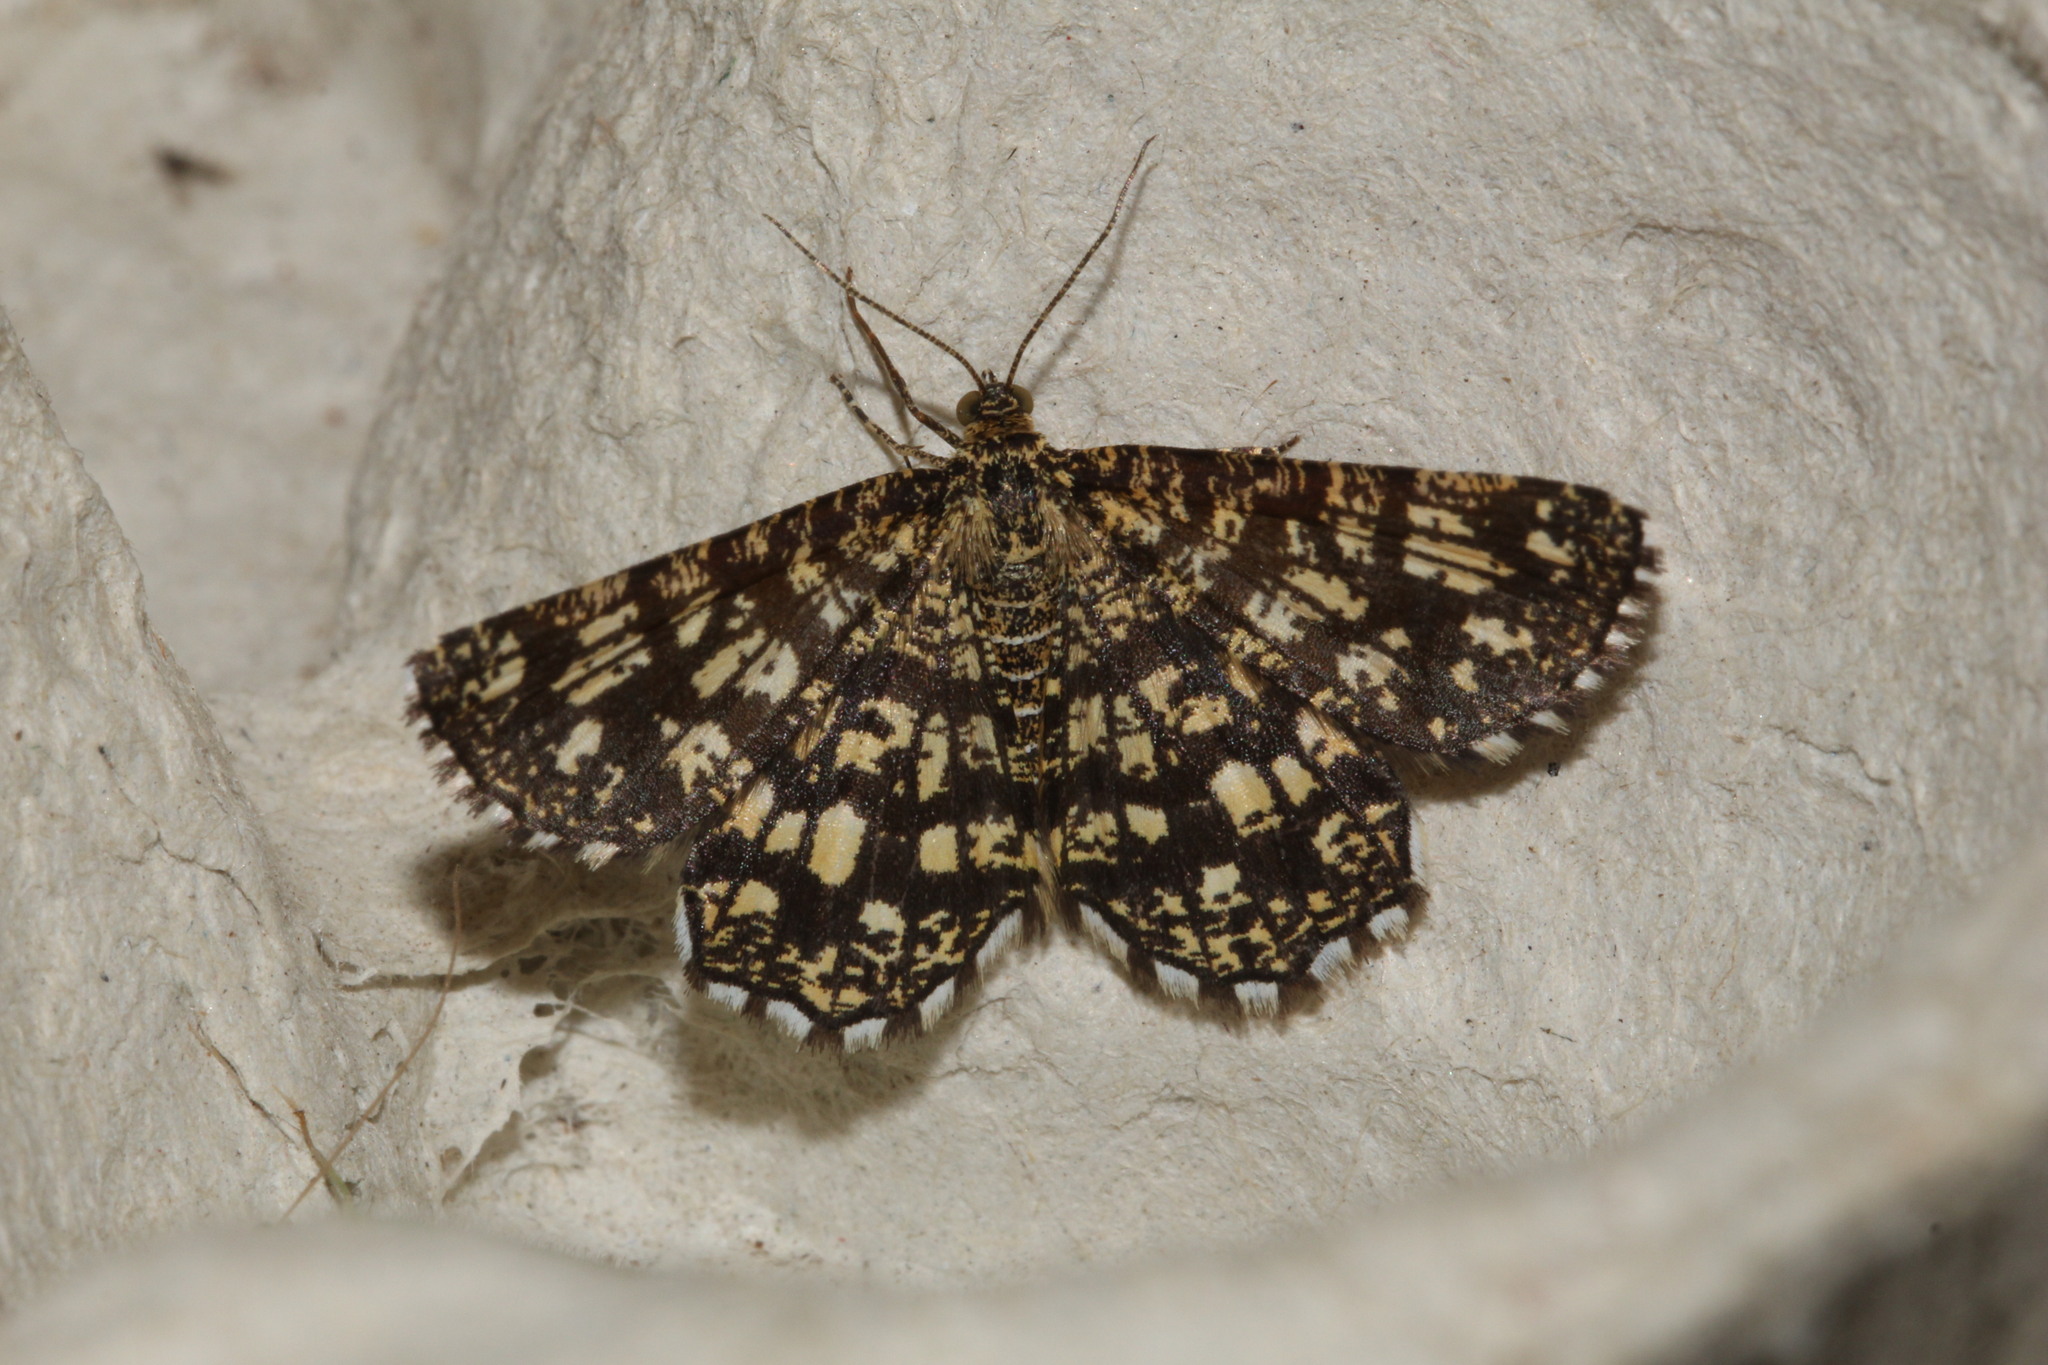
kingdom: Animalia
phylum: Arthropoda
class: Insecta
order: Lepidoptera
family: Geometridae
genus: Chiasmia
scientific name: Chiasmia clathrata
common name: Latticed heath
